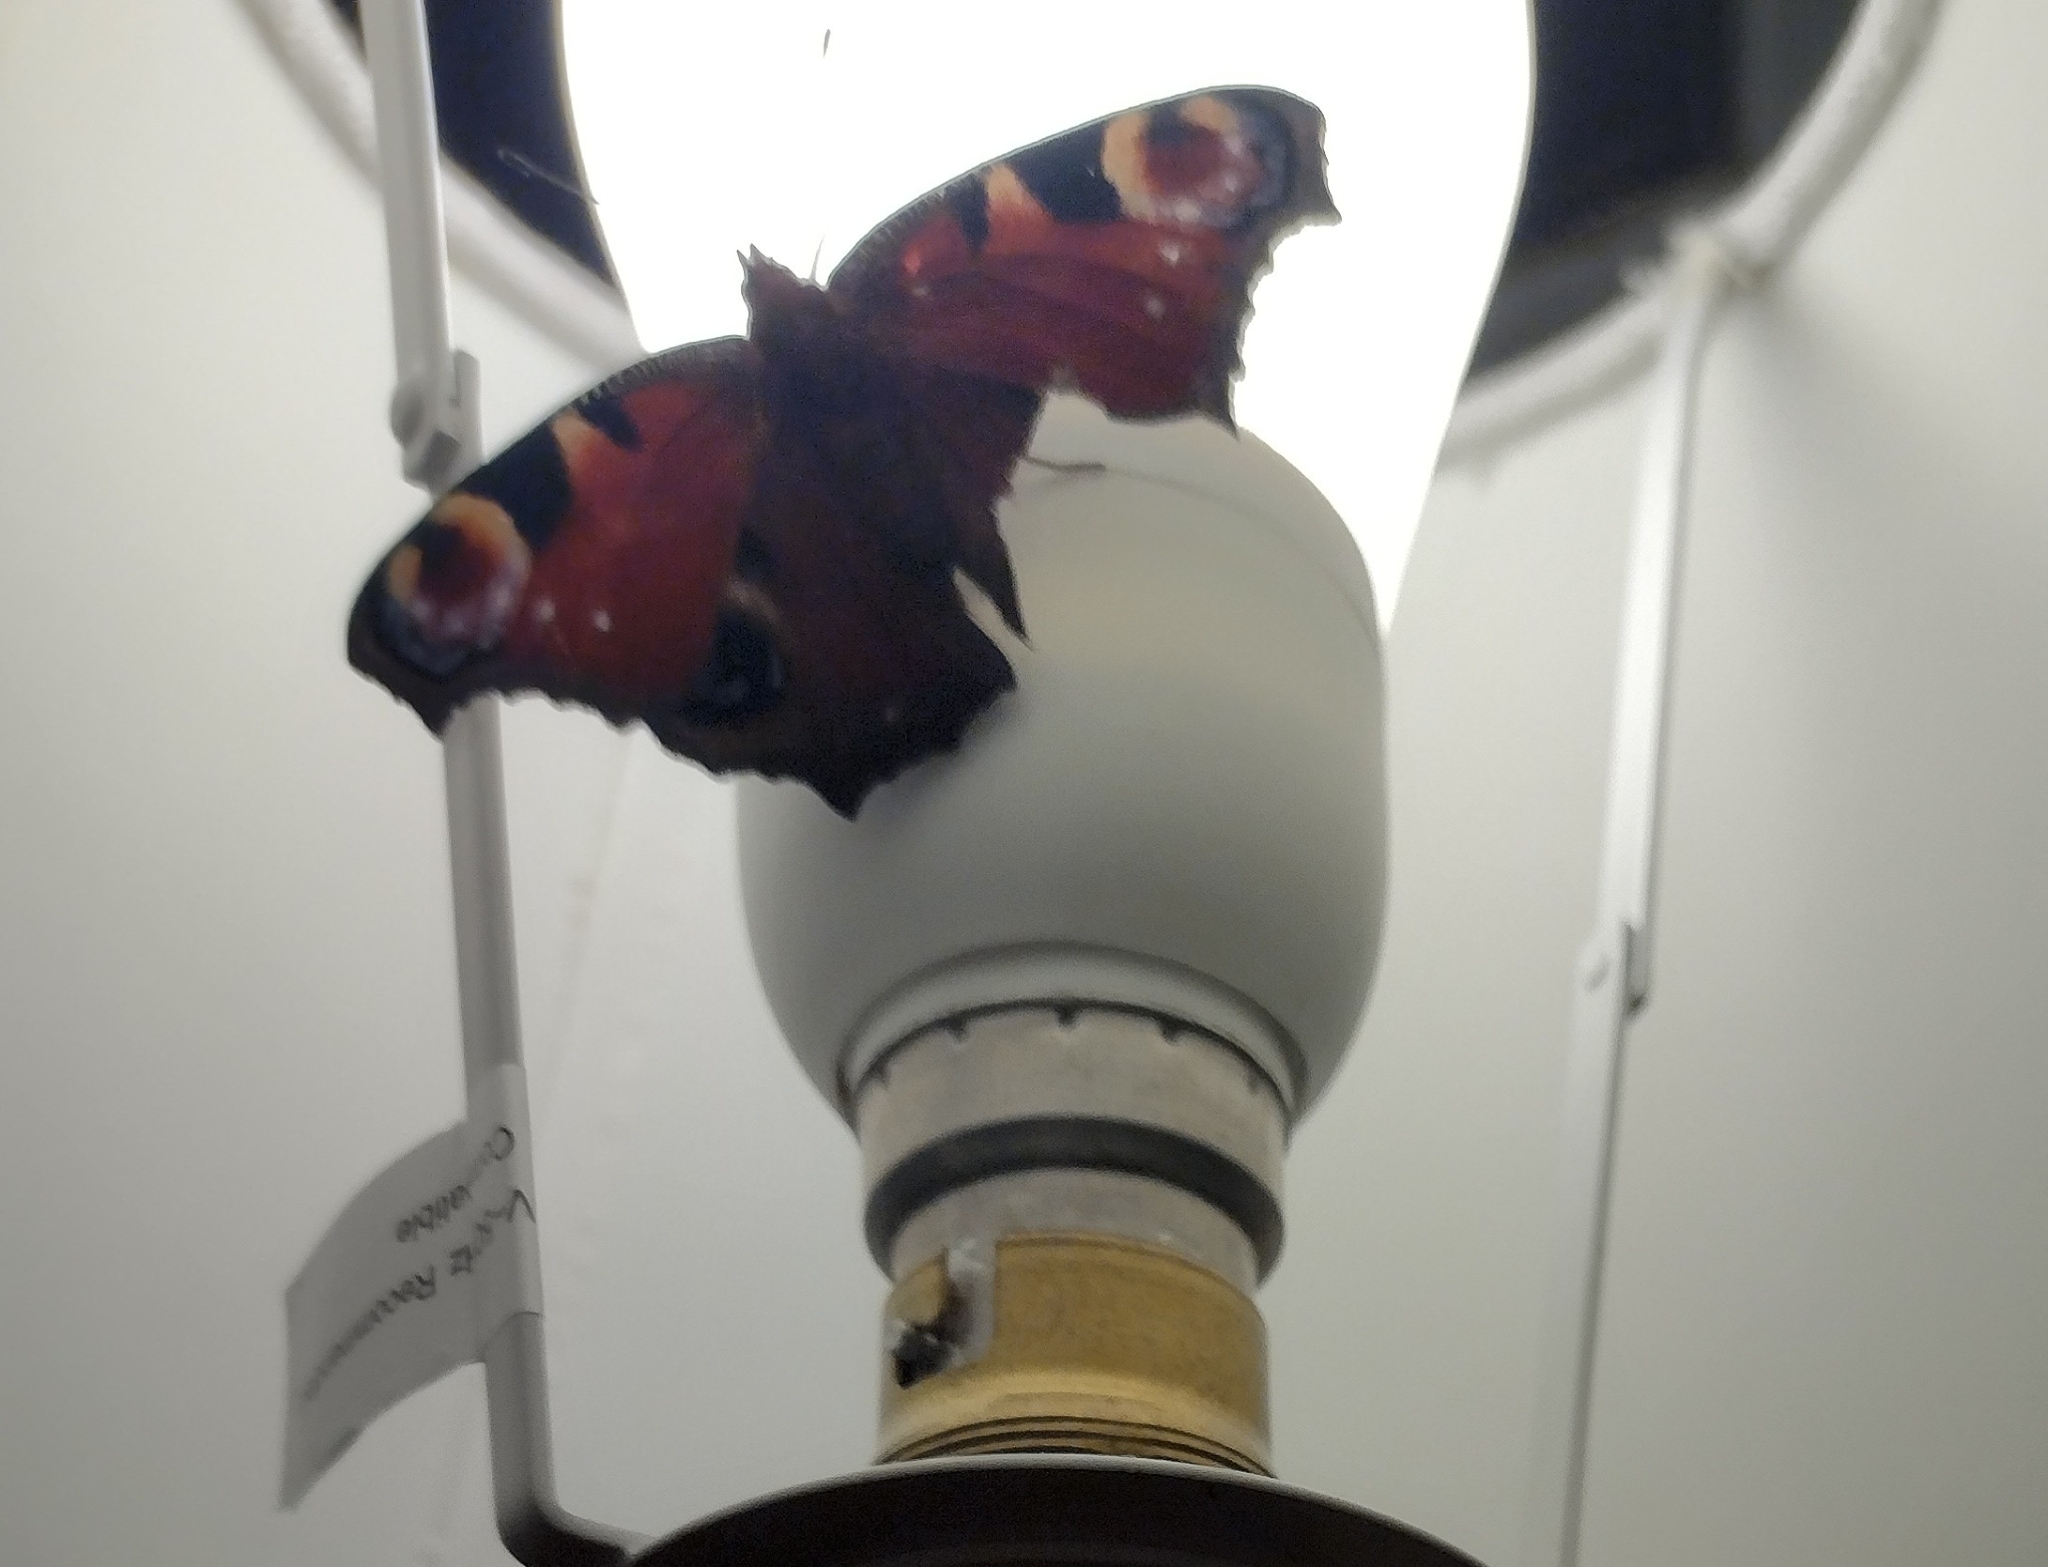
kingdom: Animalia
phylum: Arthropoda
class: Insecta
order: Lepidoptera
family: Nymphalidae
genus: Aglais
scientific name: Aglais io
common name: Peacock
